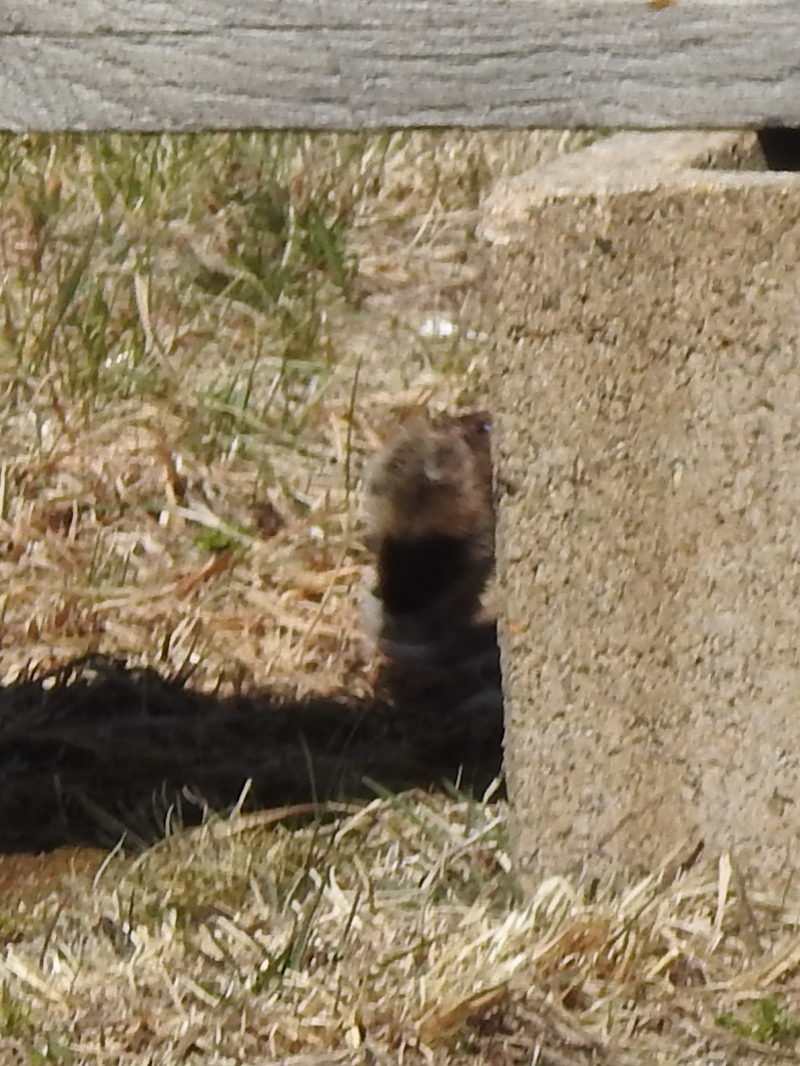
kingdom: Animalia
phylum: Chordata
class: Mammalia
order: Carnivora
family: Mustelidae
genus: Mustela
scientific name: Mustela erminea
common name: Stoat
